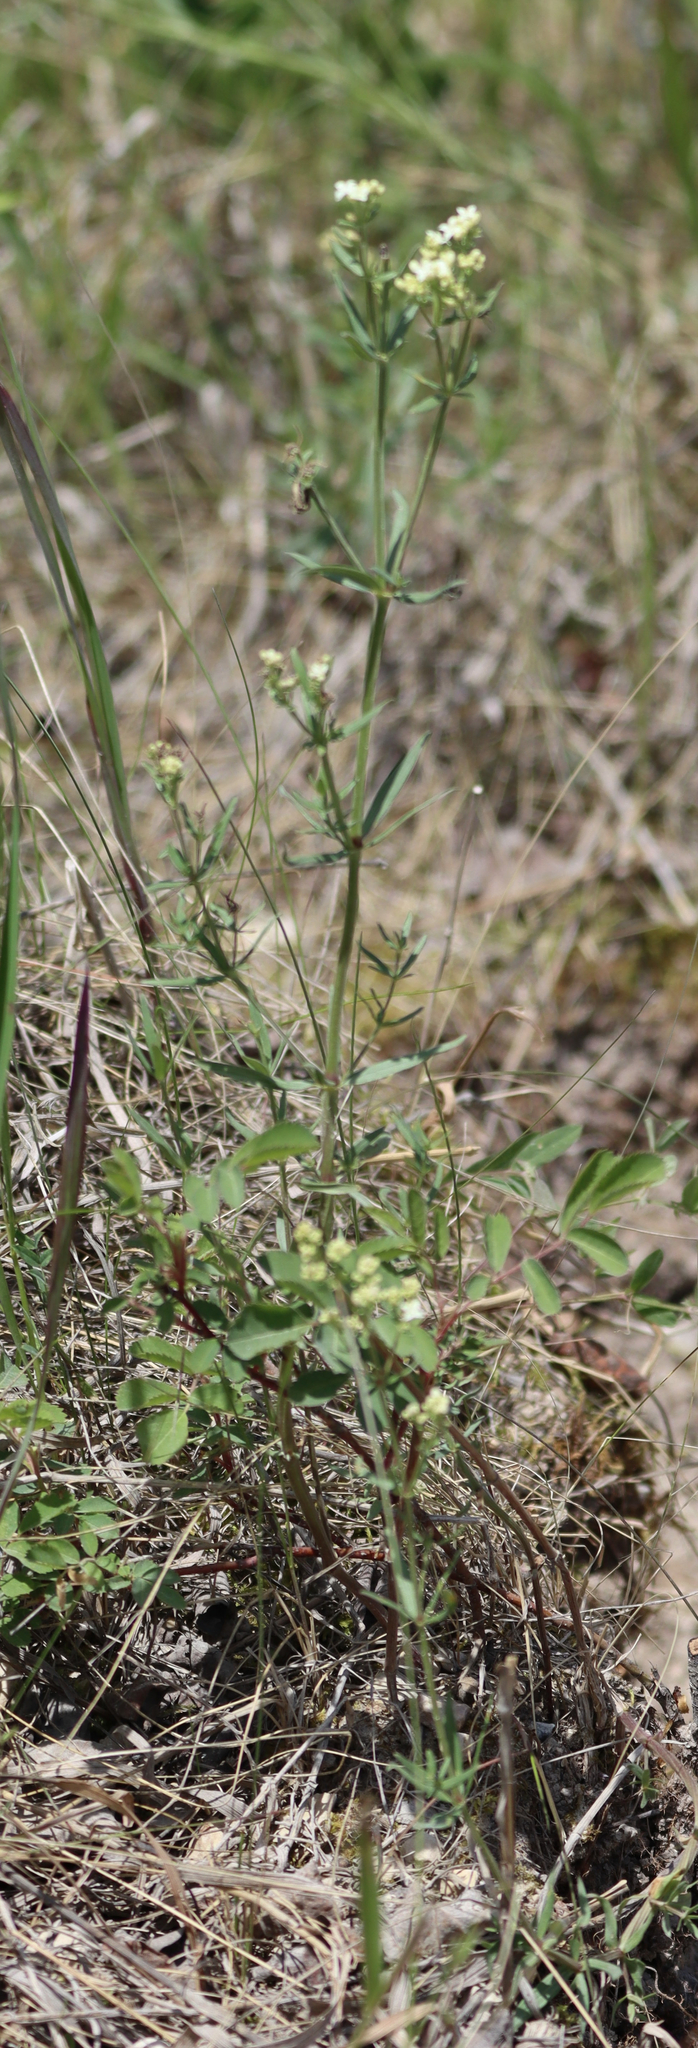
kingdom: Plantae
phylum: Tracheophyta
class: Magnoliopsida
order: Gentianales
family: Rubiaceae
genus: Galium
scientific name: Galium boreale
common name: Northern bedstraw
